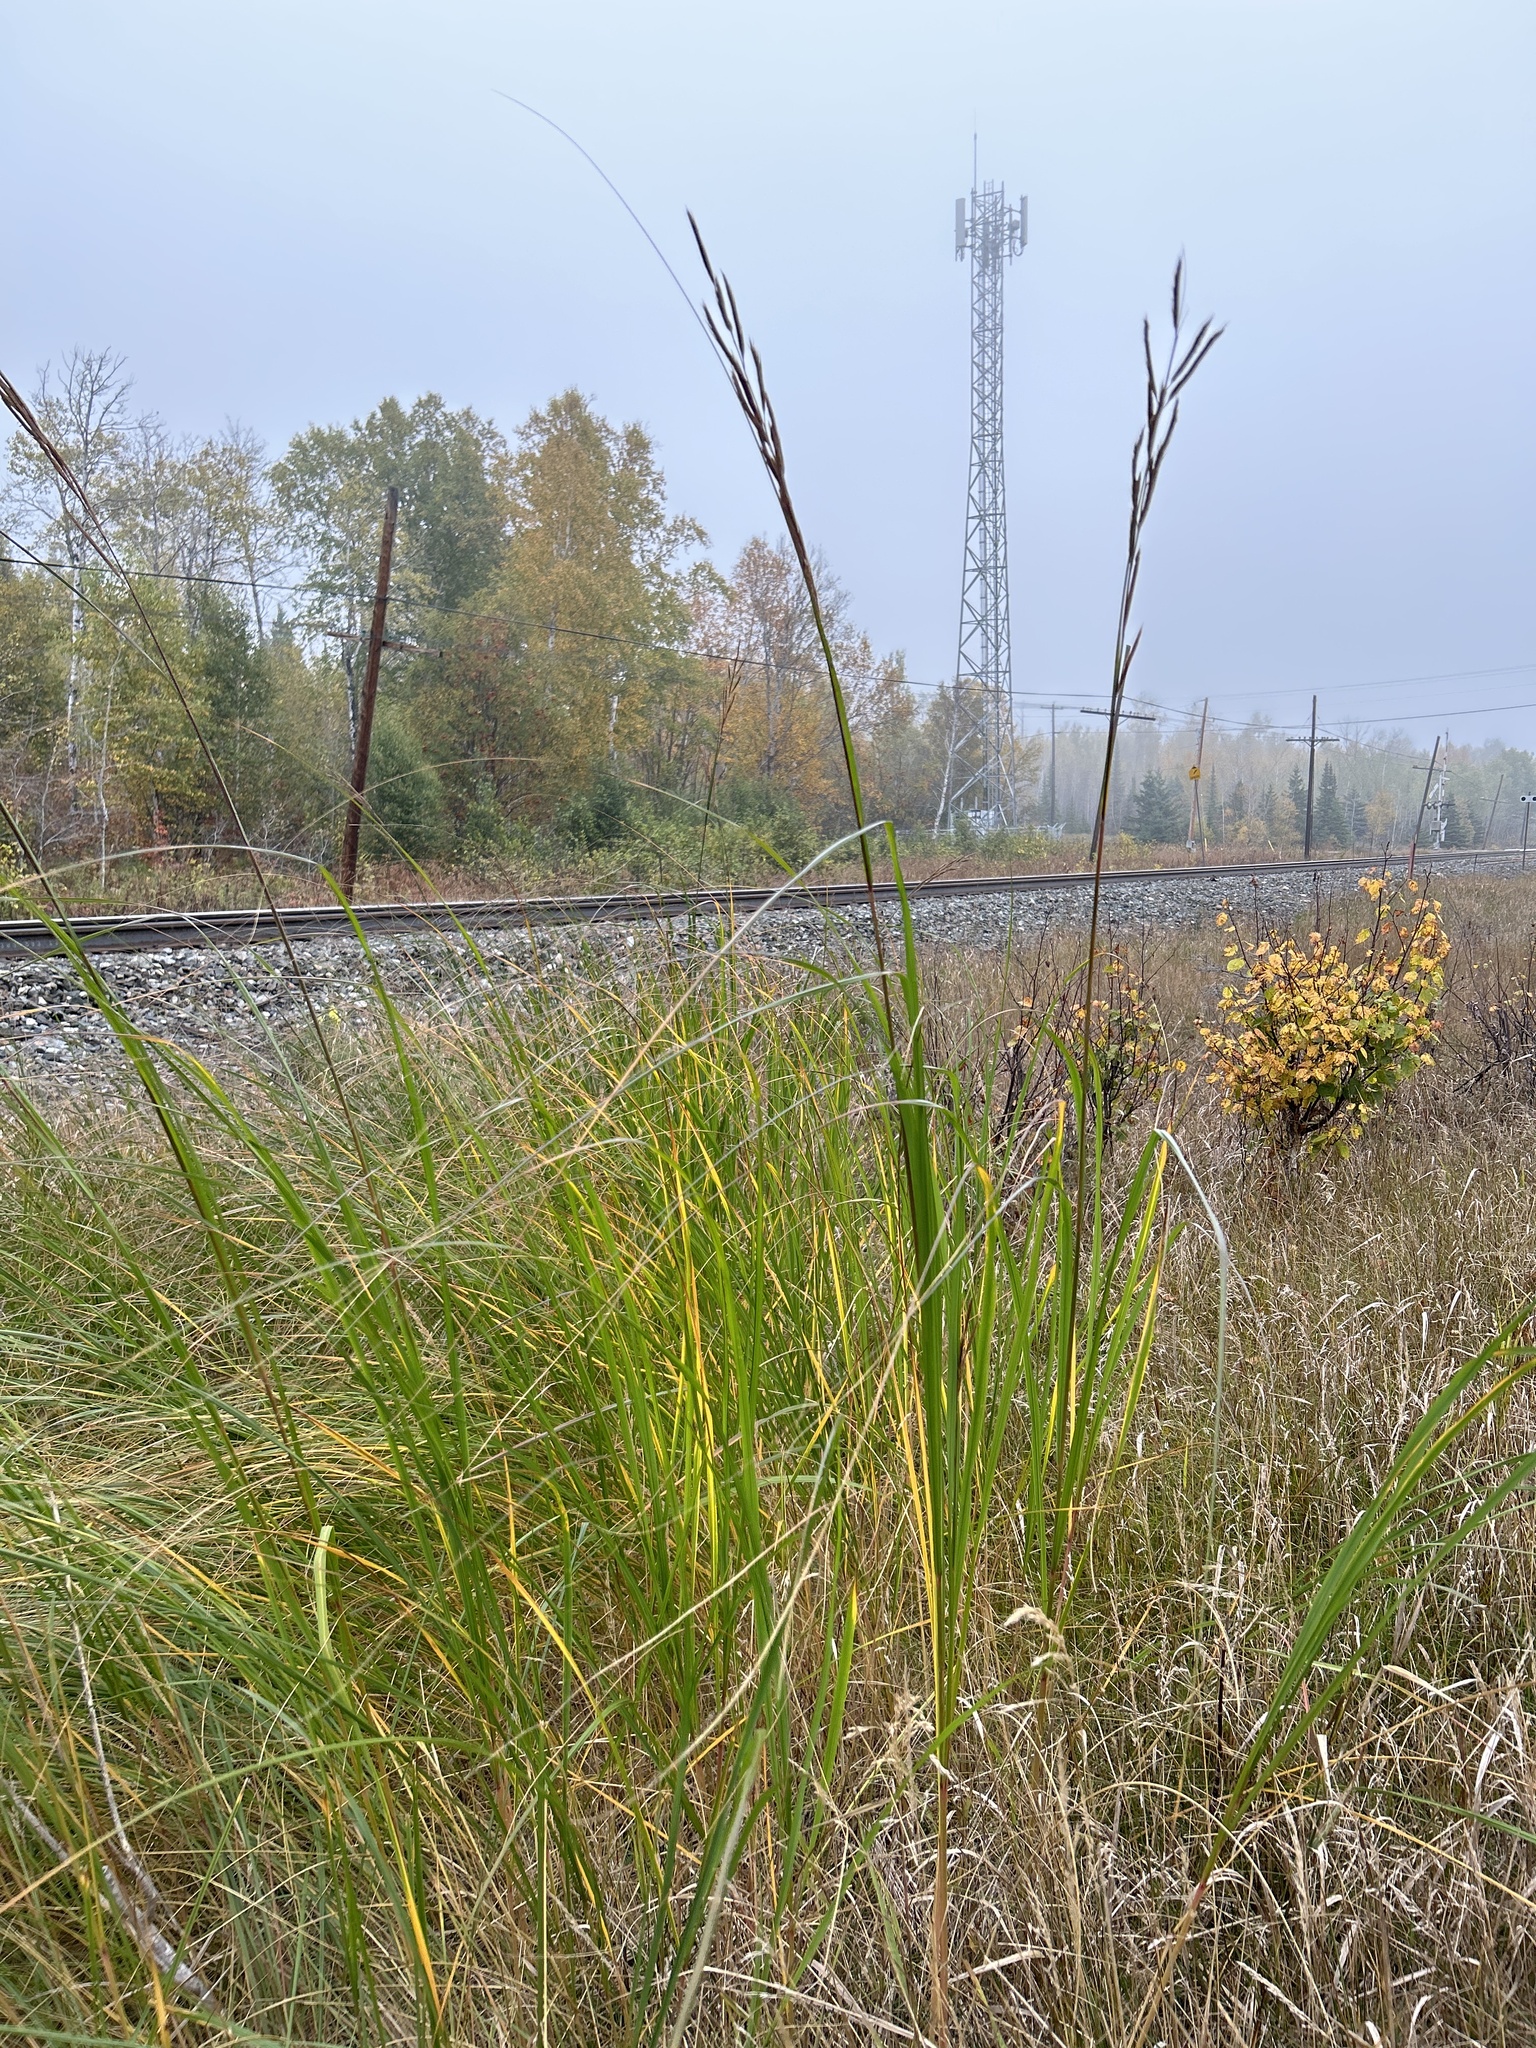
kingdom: Plantae
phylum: Tracheophyta
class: Liliopsida
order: Poales
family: Poaceae
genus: Sporobolus
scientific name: Sporobolus michauxianus
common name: Freshwater cordgrass
